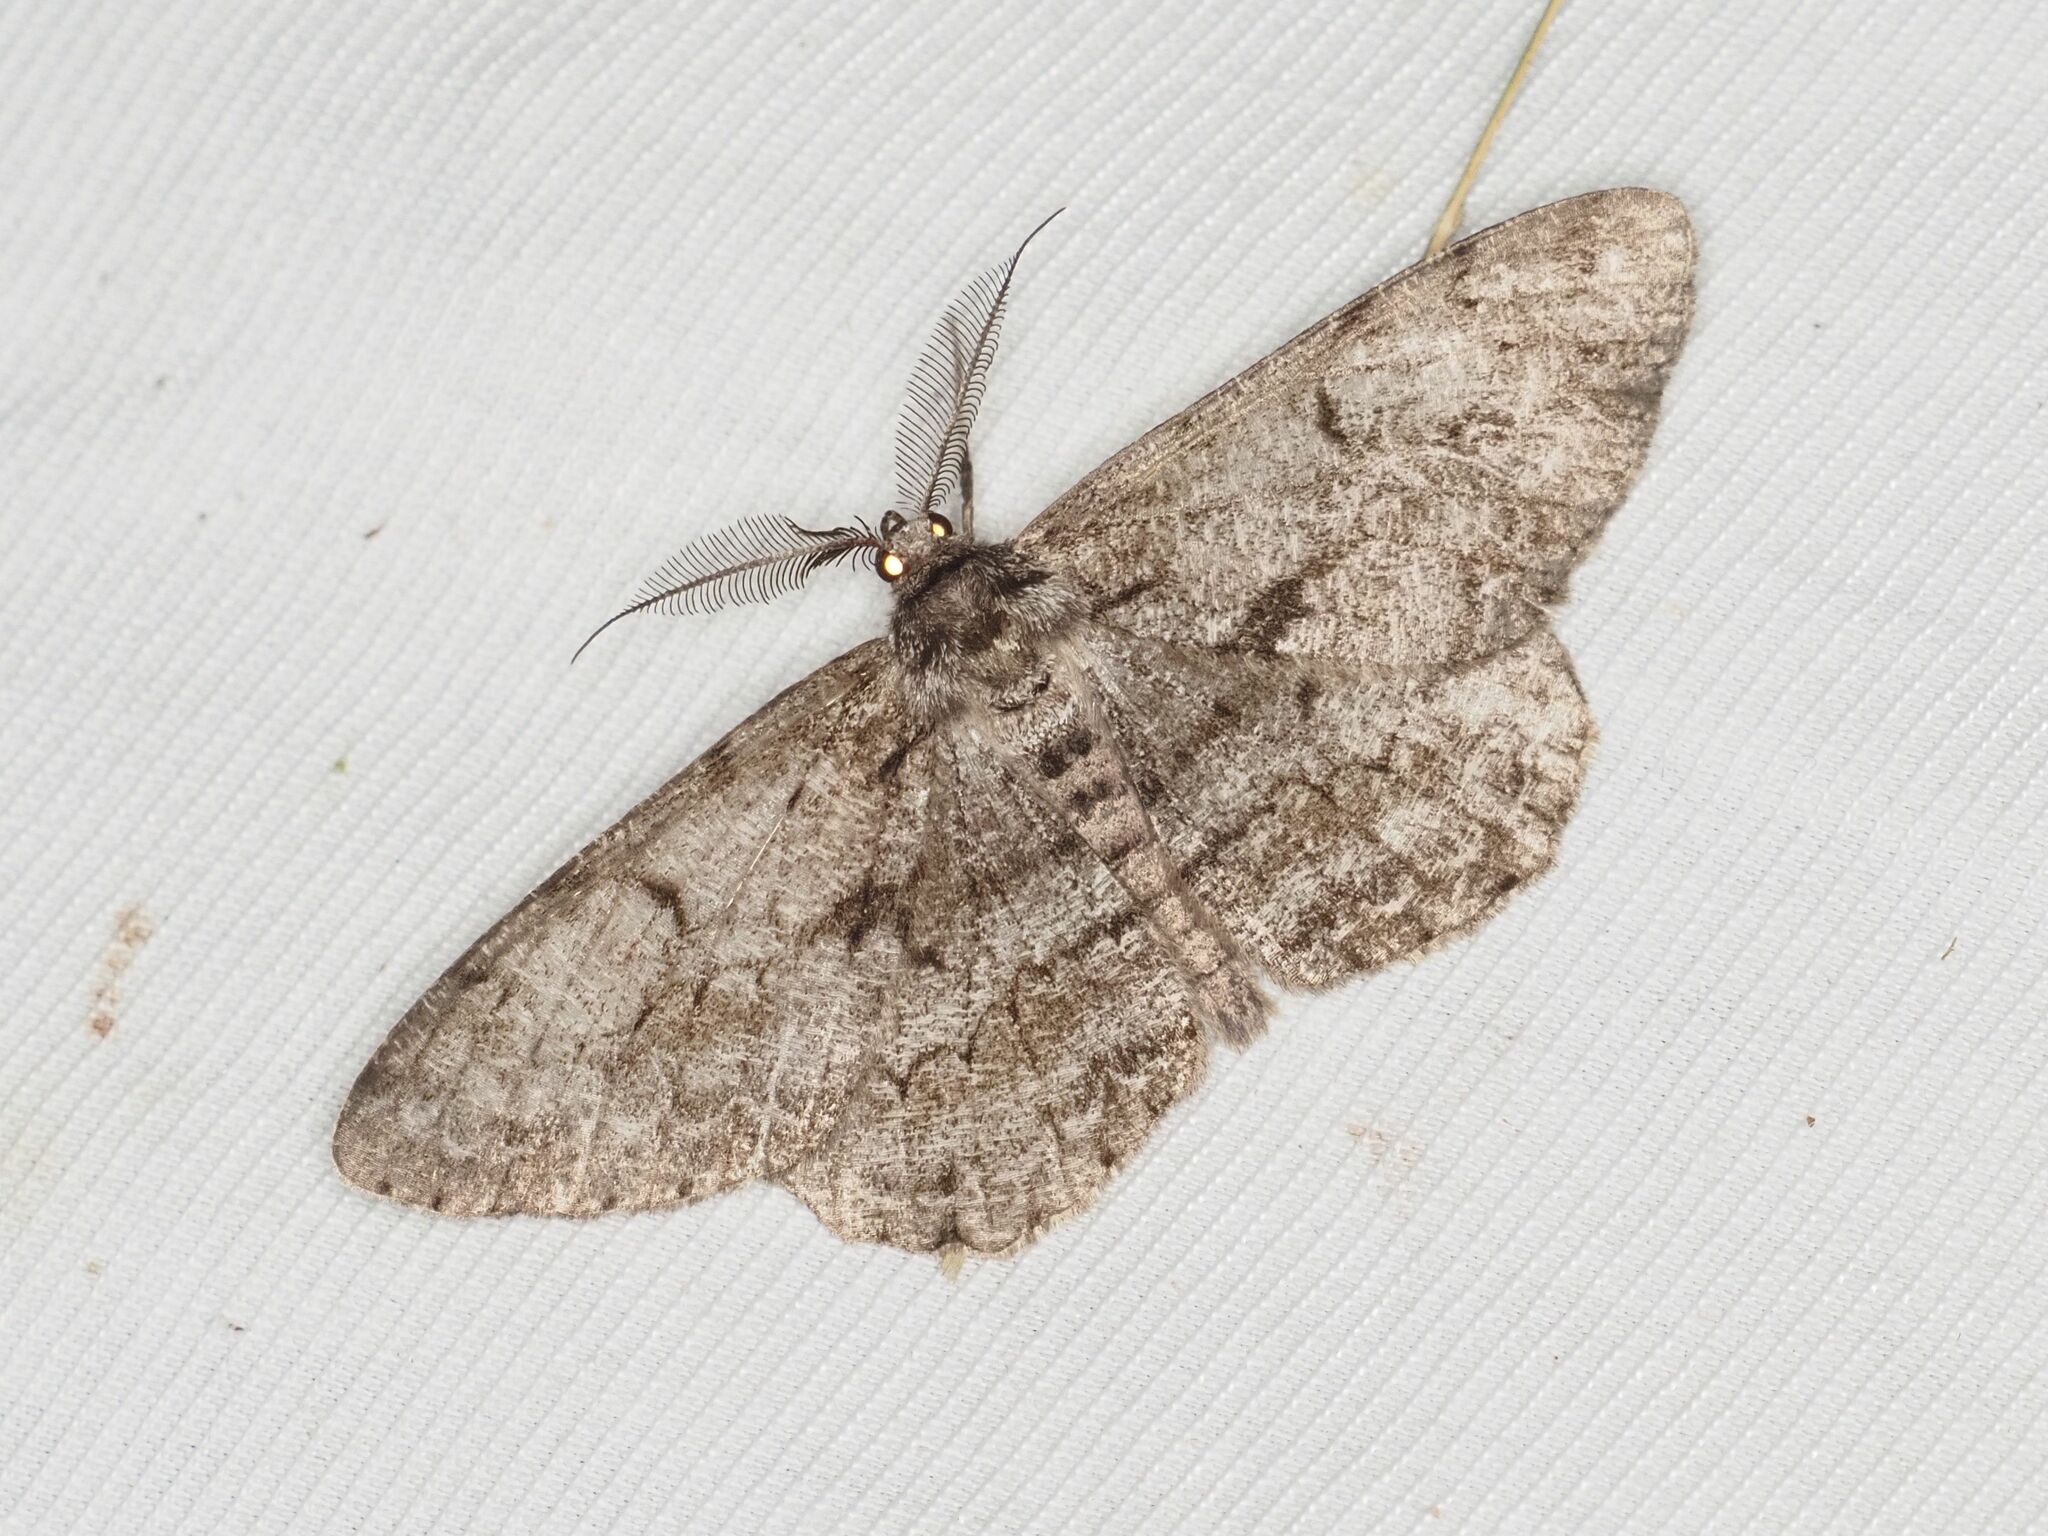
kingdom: Animalia
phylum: Arthropoda
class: Insecta
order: Lepidoptera
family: Geometridae
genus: Hypomecis
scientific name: Hypomecis roboraria
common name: Great oak beauty
